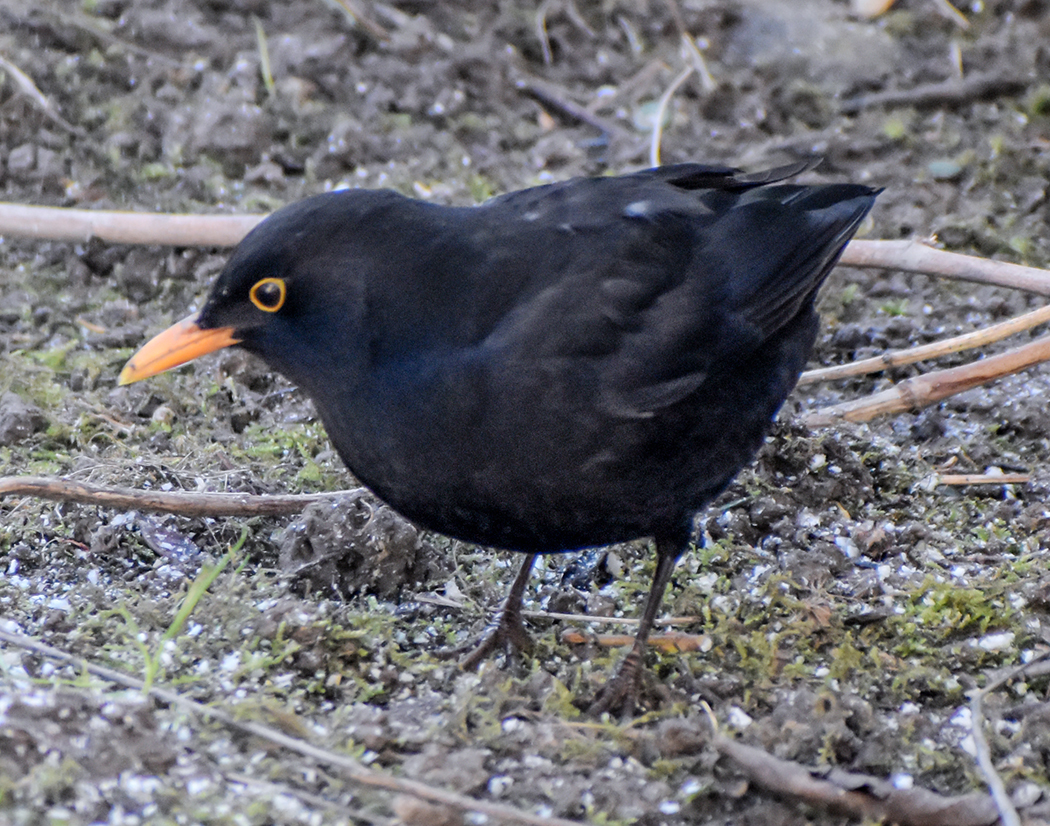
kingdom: Animalia
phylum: Chordata
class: Aves
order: Passeriformes
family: Turdidae
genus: Turdus
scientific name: Turdus merula
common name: Common blackbird
